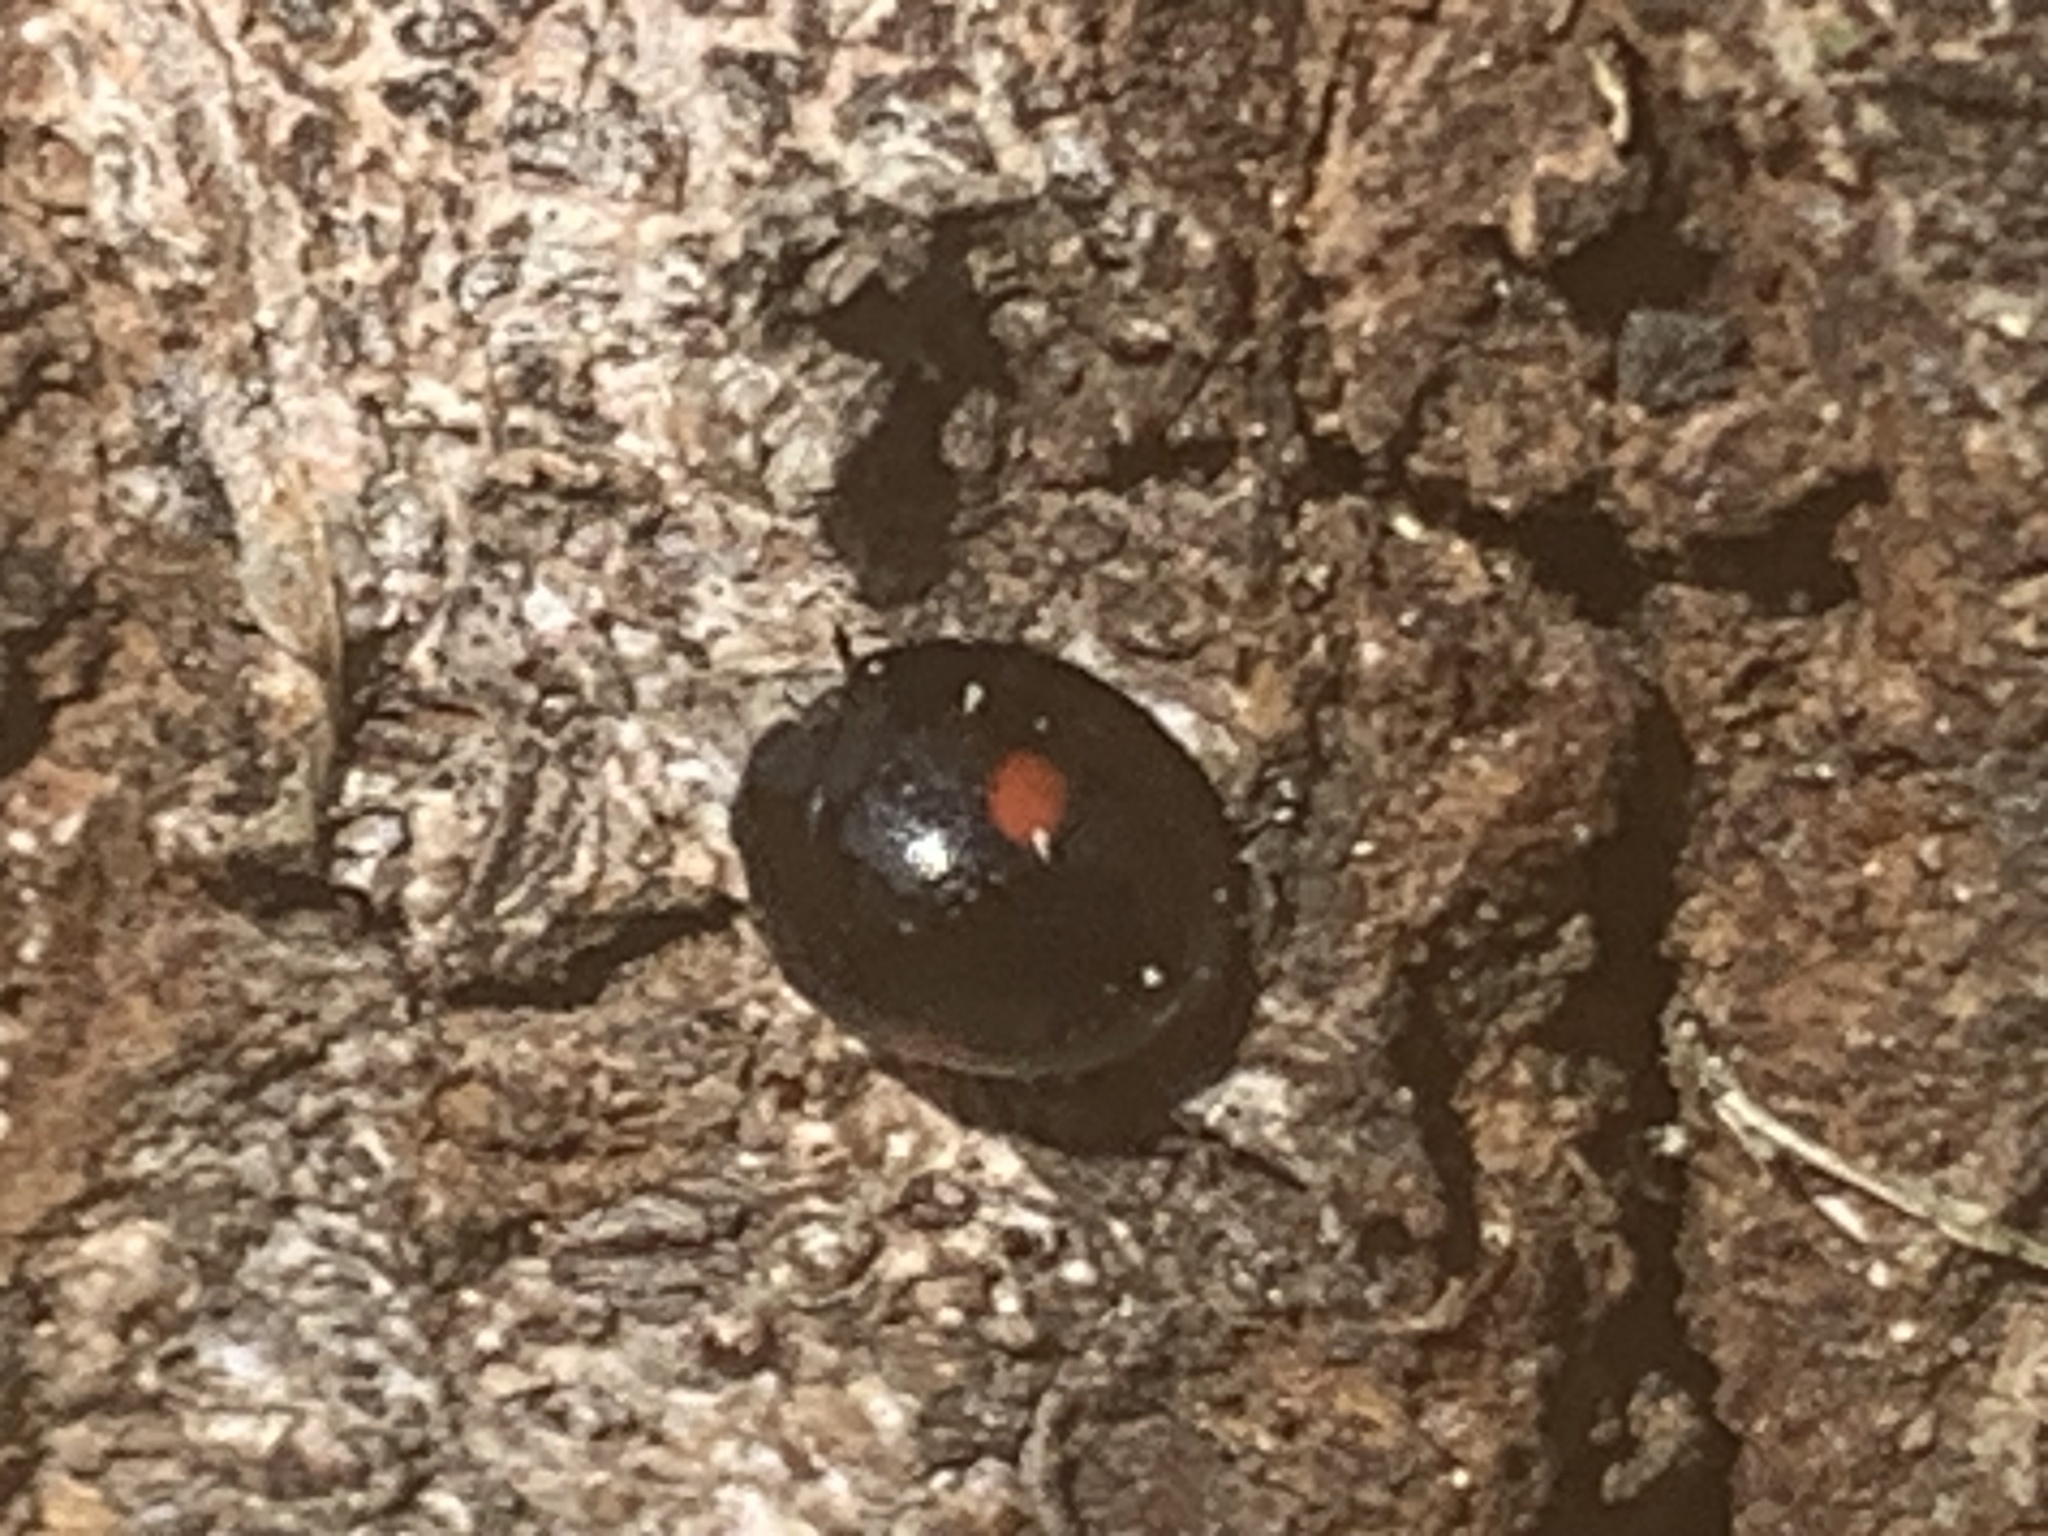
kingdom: Animalia
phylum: Arthropoda
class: Insecta
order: Coleoptera
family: Coccinellidae
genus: Chilocorus
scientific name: Chilocorus stigma
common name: Twicestabbed lady beetle
